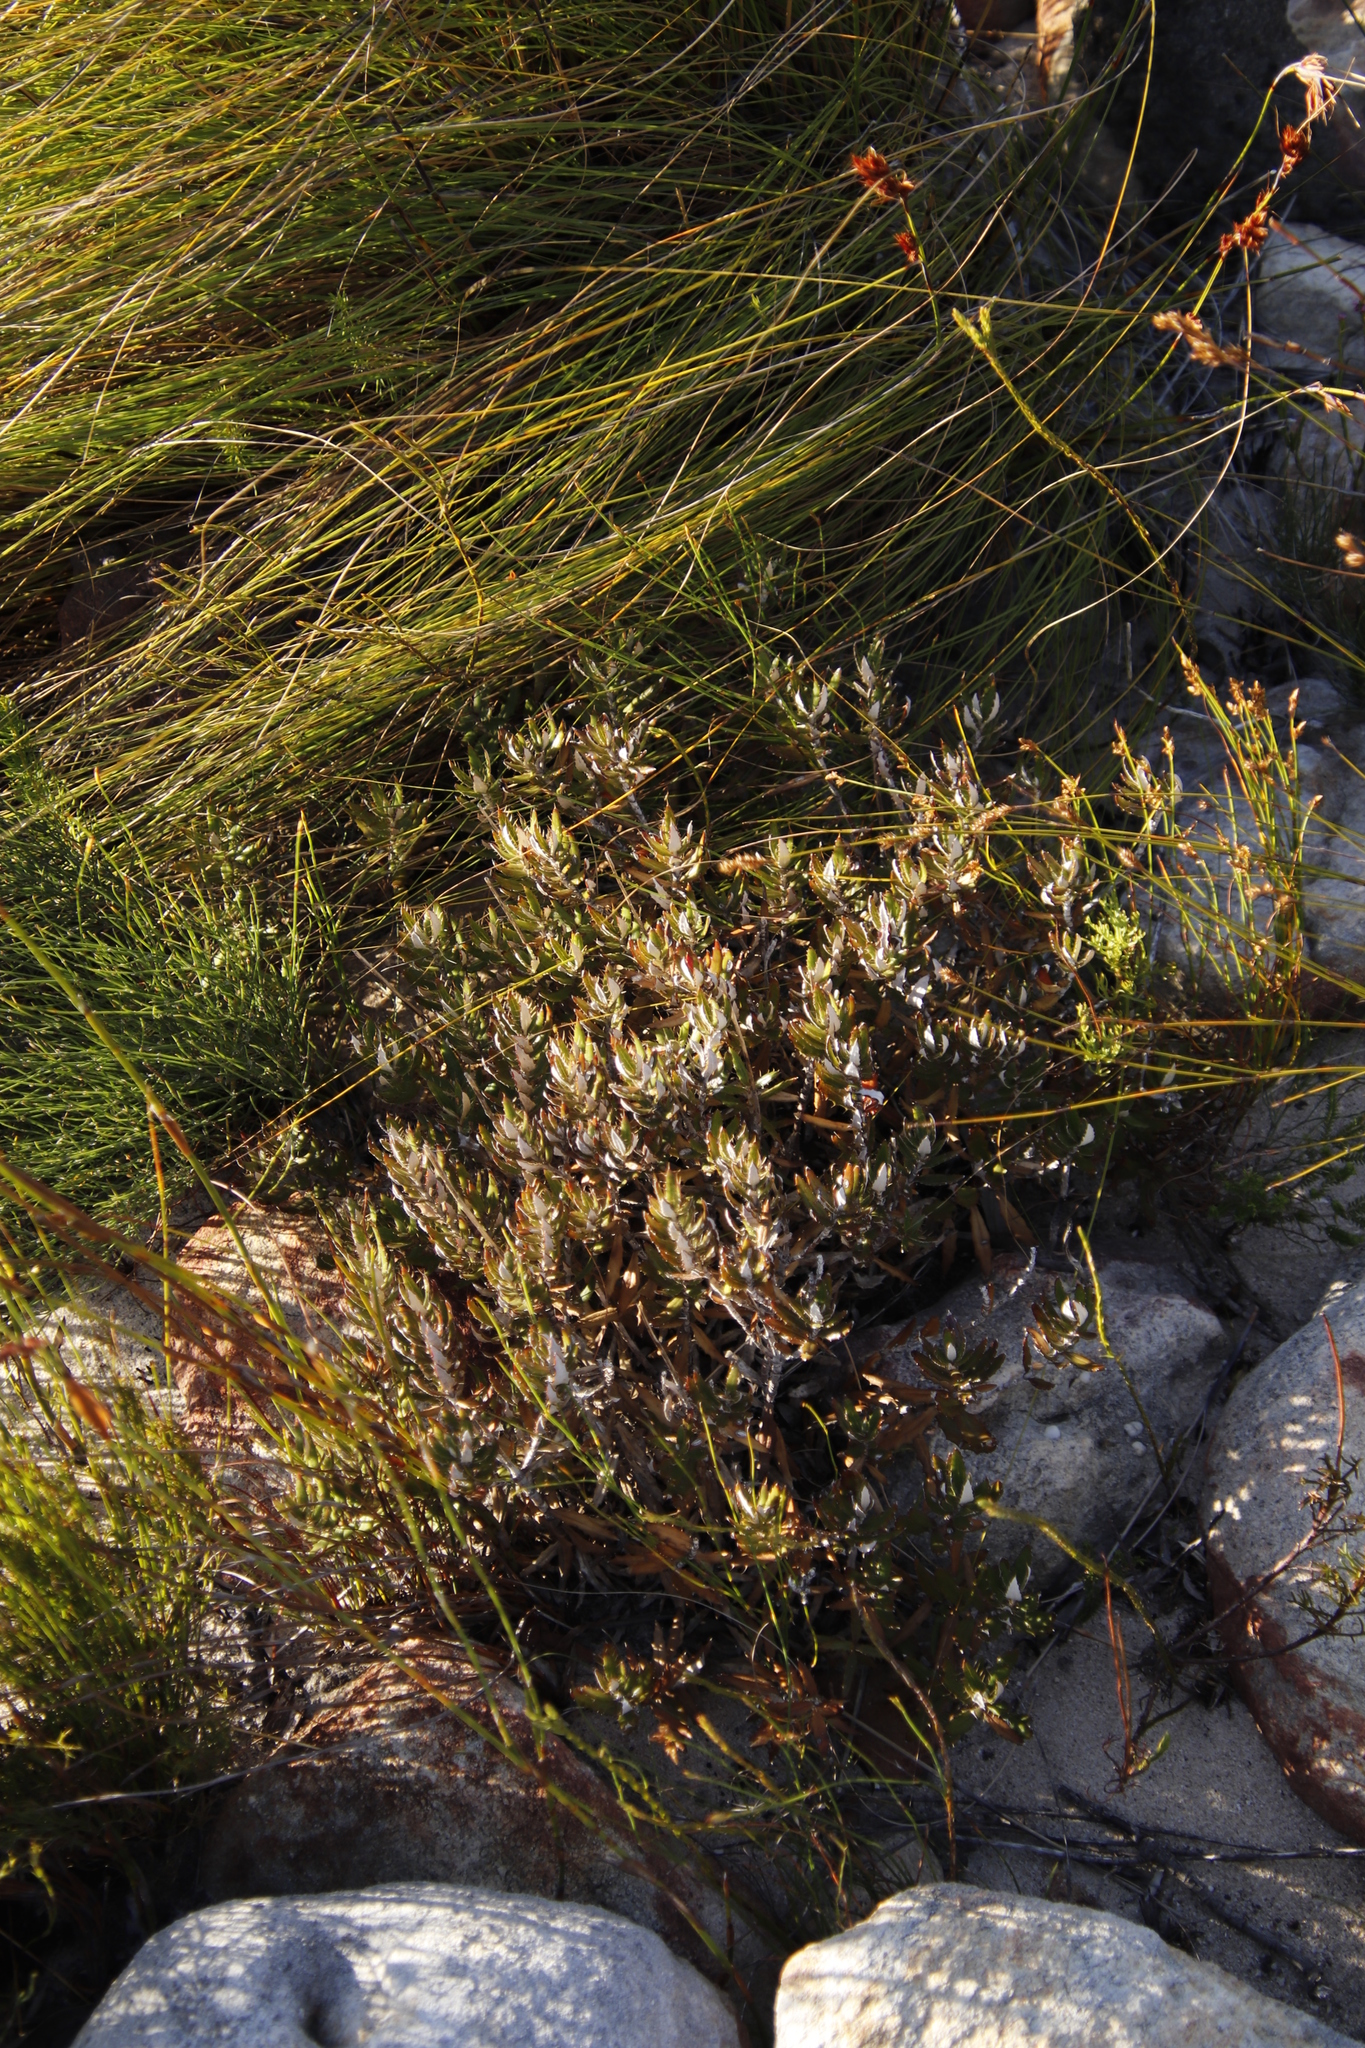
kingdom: Plantae
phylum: Tracheophyta
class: Magnoliopsida
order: Asterales
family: Asteraceae
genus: Berkheya
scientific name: Berkheya barbata
